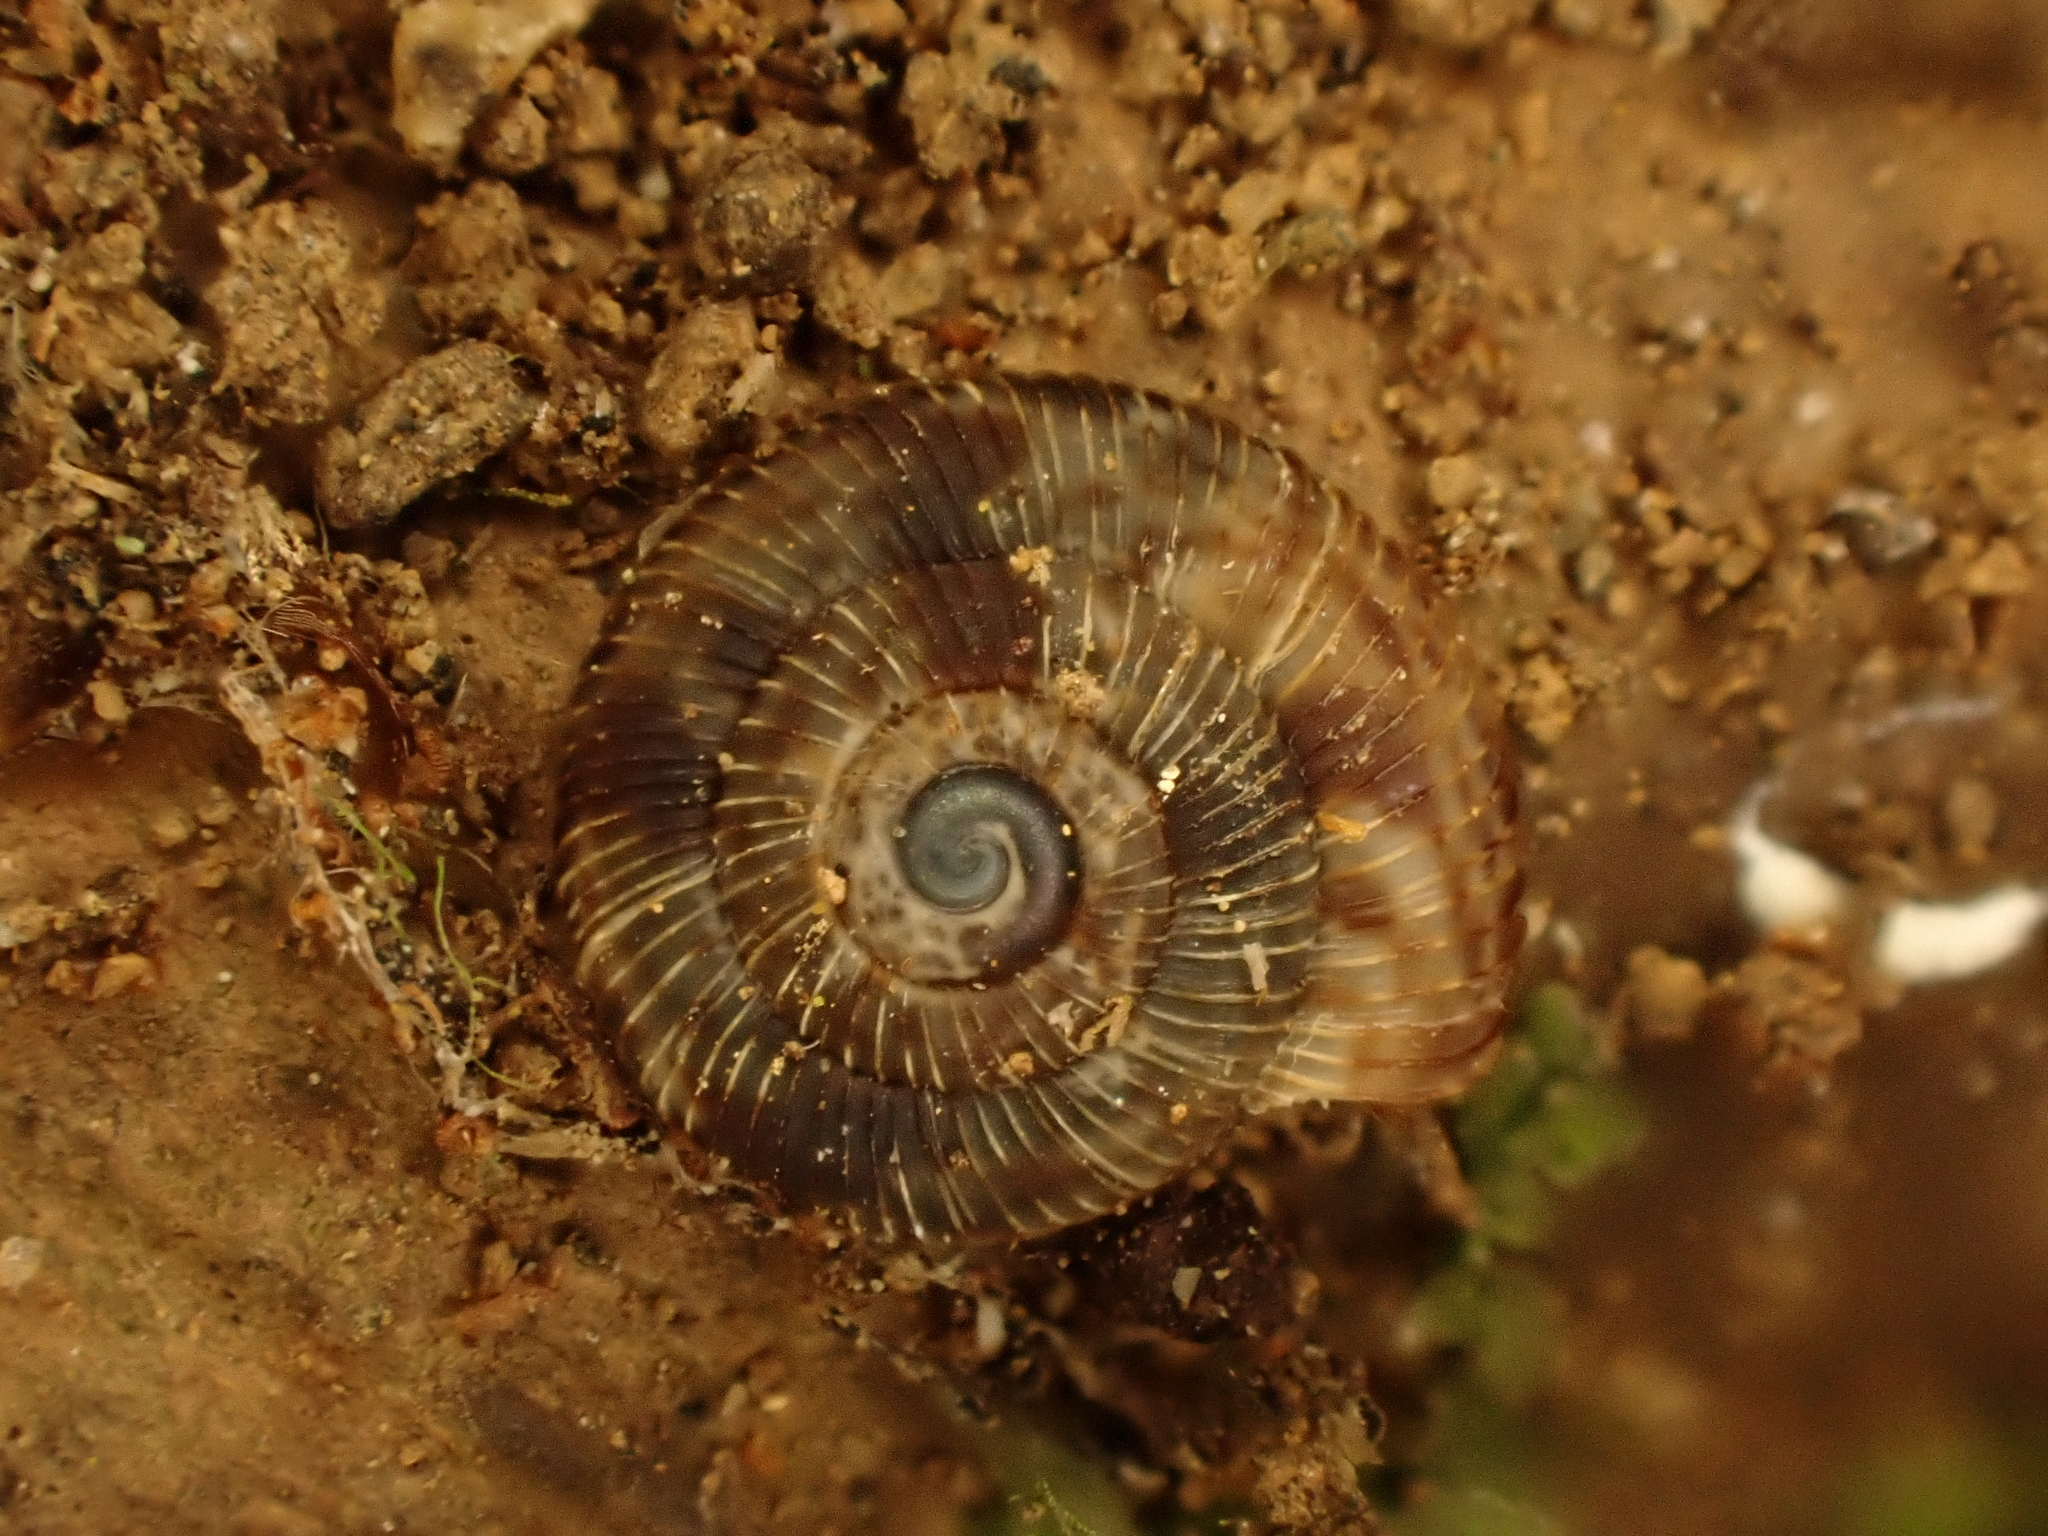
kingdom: Animalia
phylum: Mollusca
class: Gastropoda
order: Stylommatophora
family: Charopidae
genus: Phenacohelix
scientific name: Phenacohelix ponsonbyi
